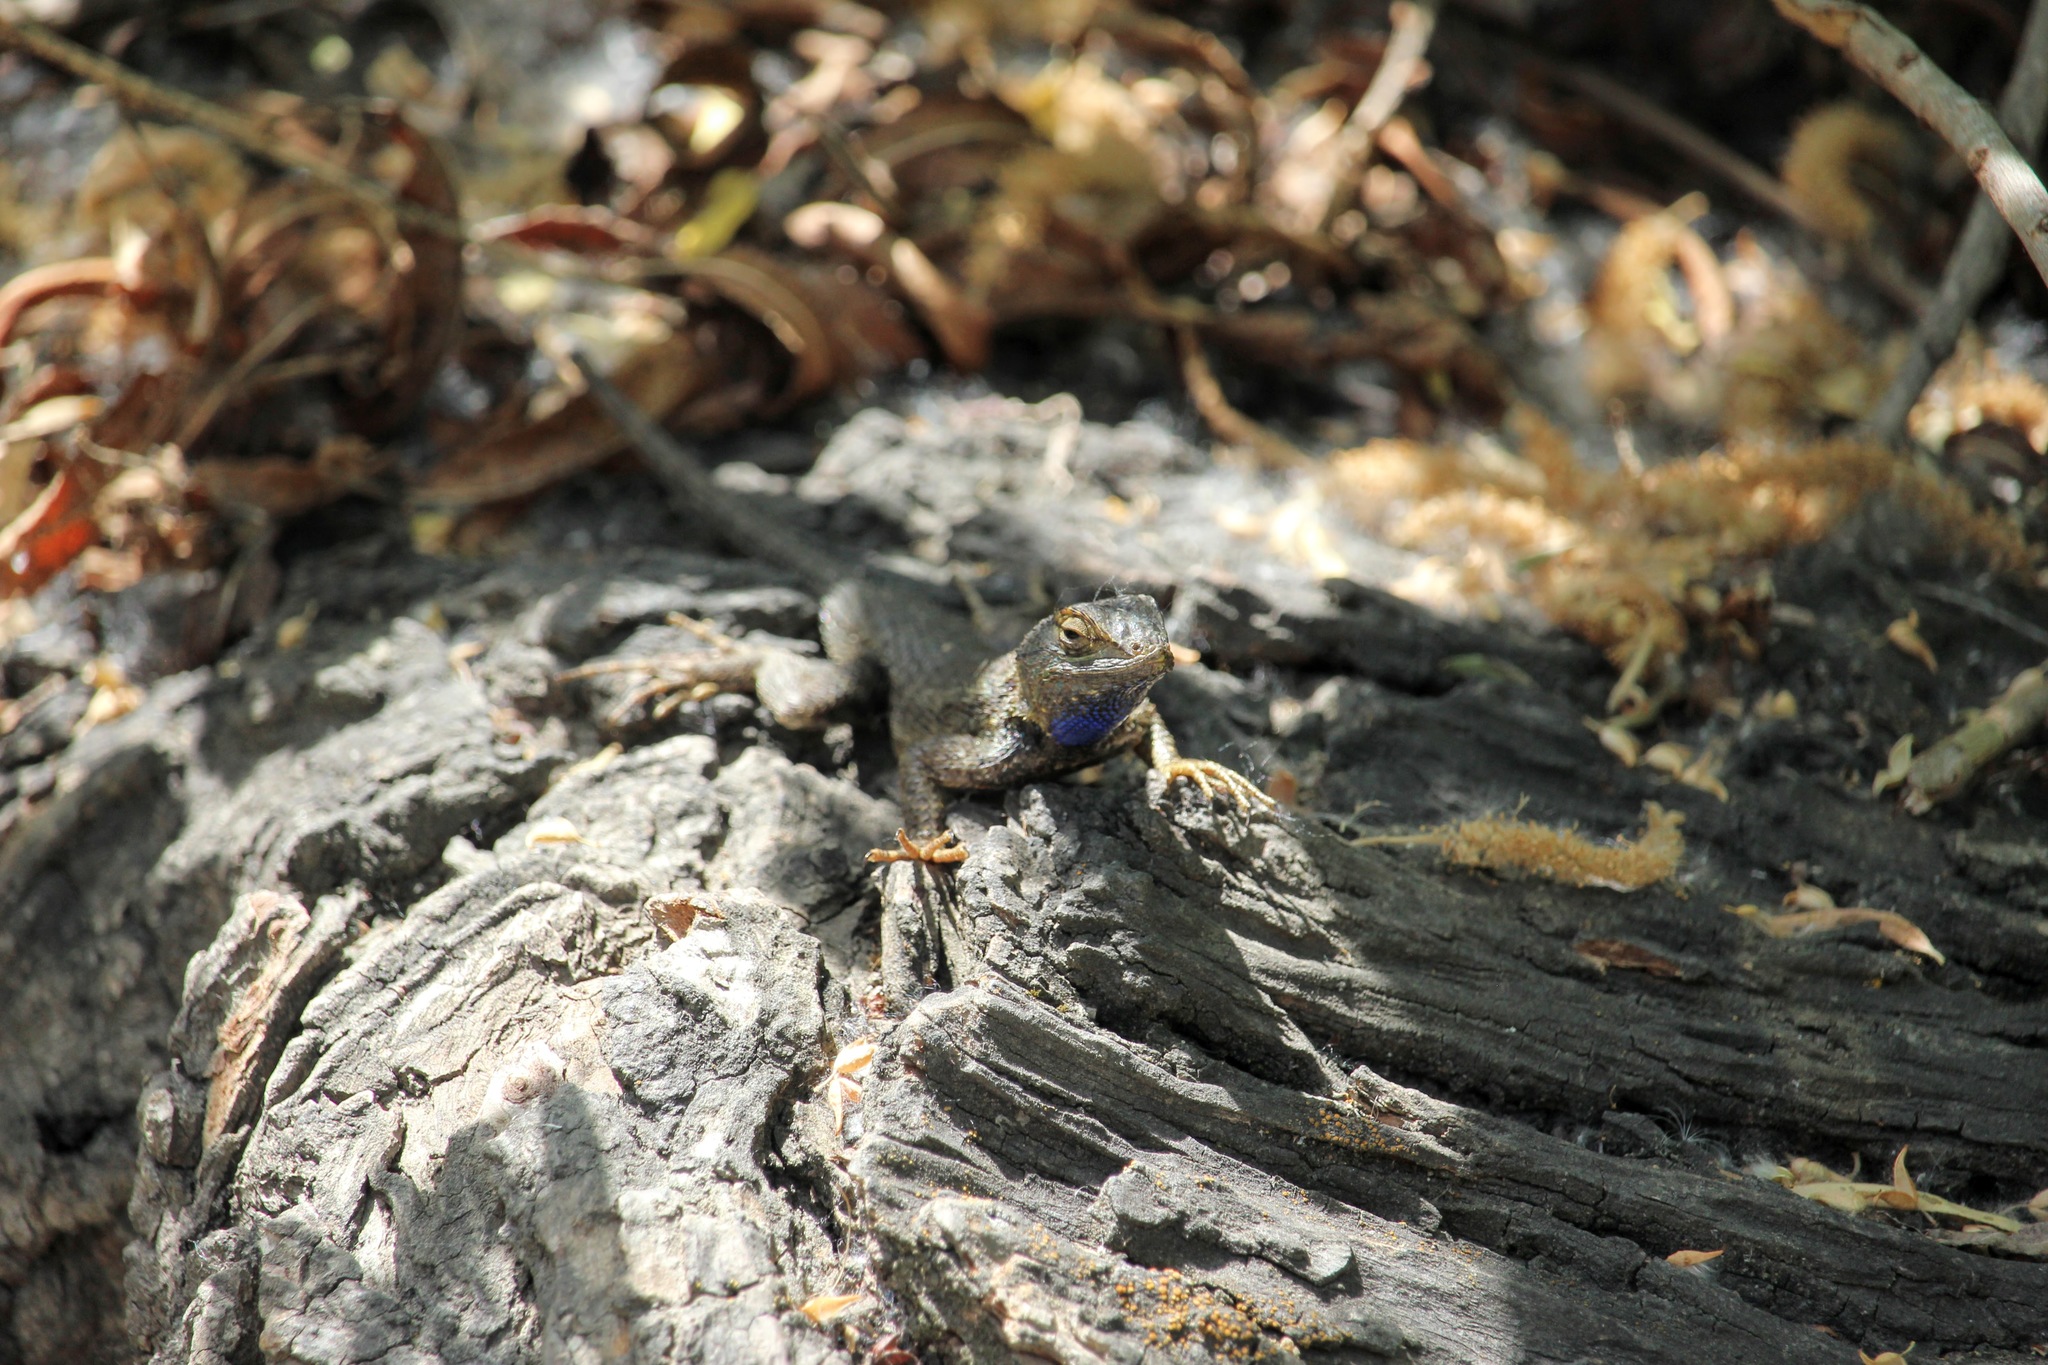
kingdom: Animalia
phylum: Chordata
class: Squamata
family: Phrynosomatidae
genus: Sceloporus
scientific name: Sceloporus occidentalis
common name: Western fence lizard
